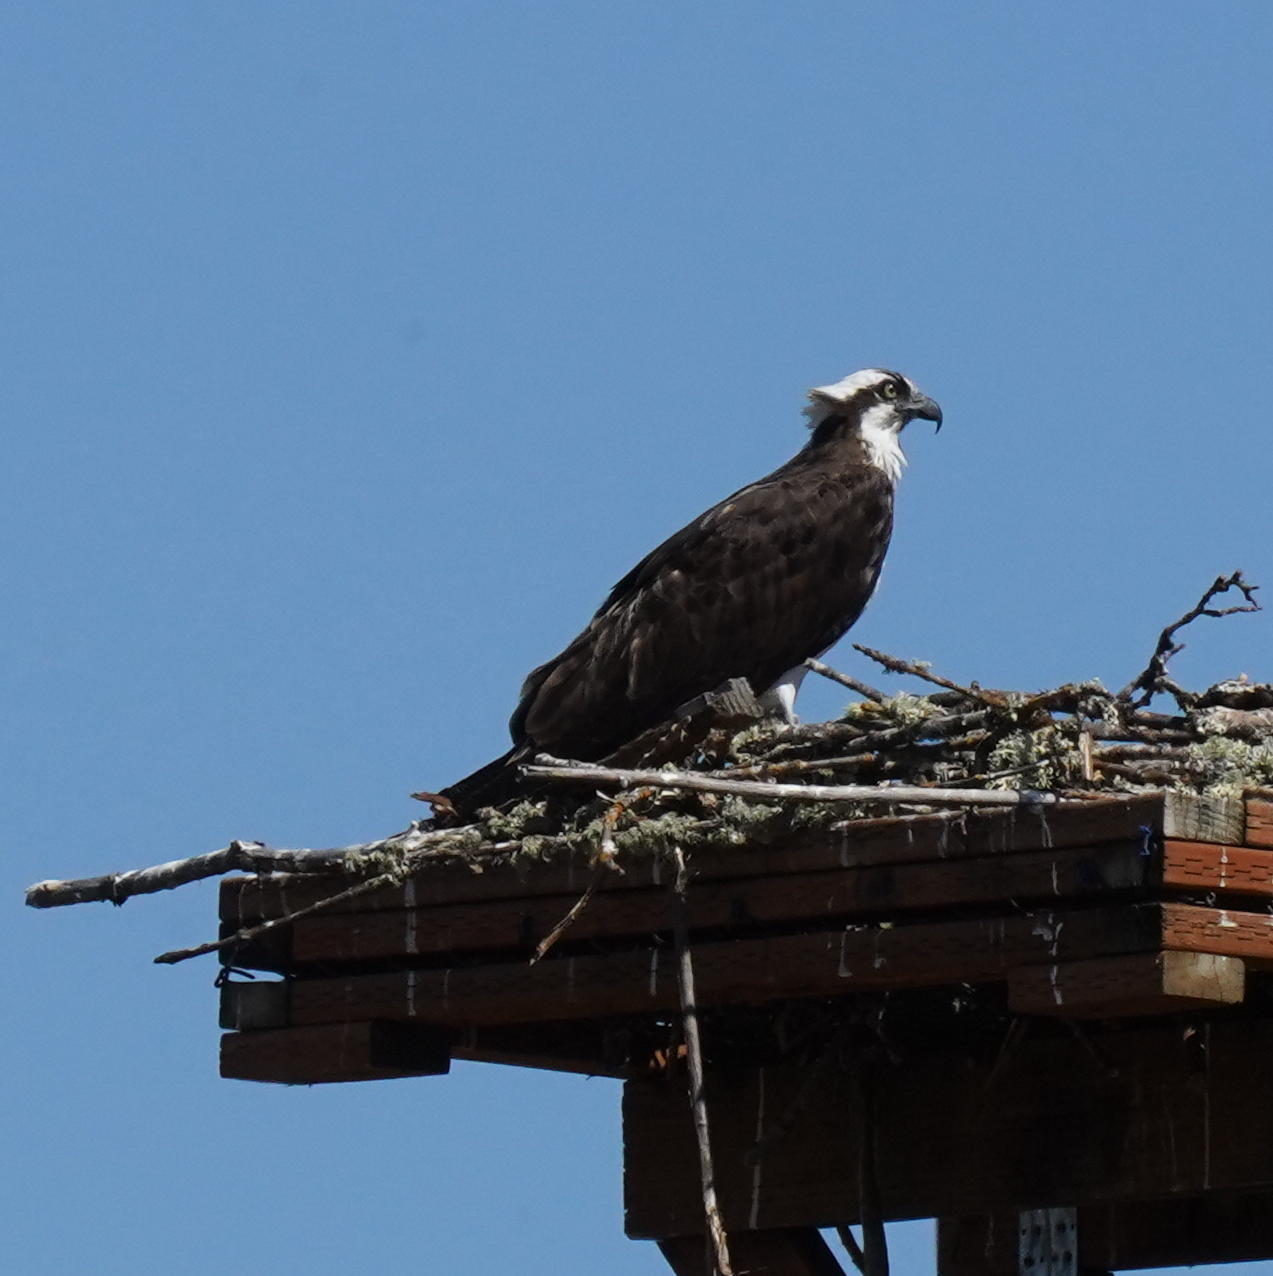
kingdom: Animalia
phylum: Chordata
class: Aves
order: Accipitriformes
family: Pandionidae
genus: Pandion
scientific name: Pandion haliaetus
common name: Osprey
